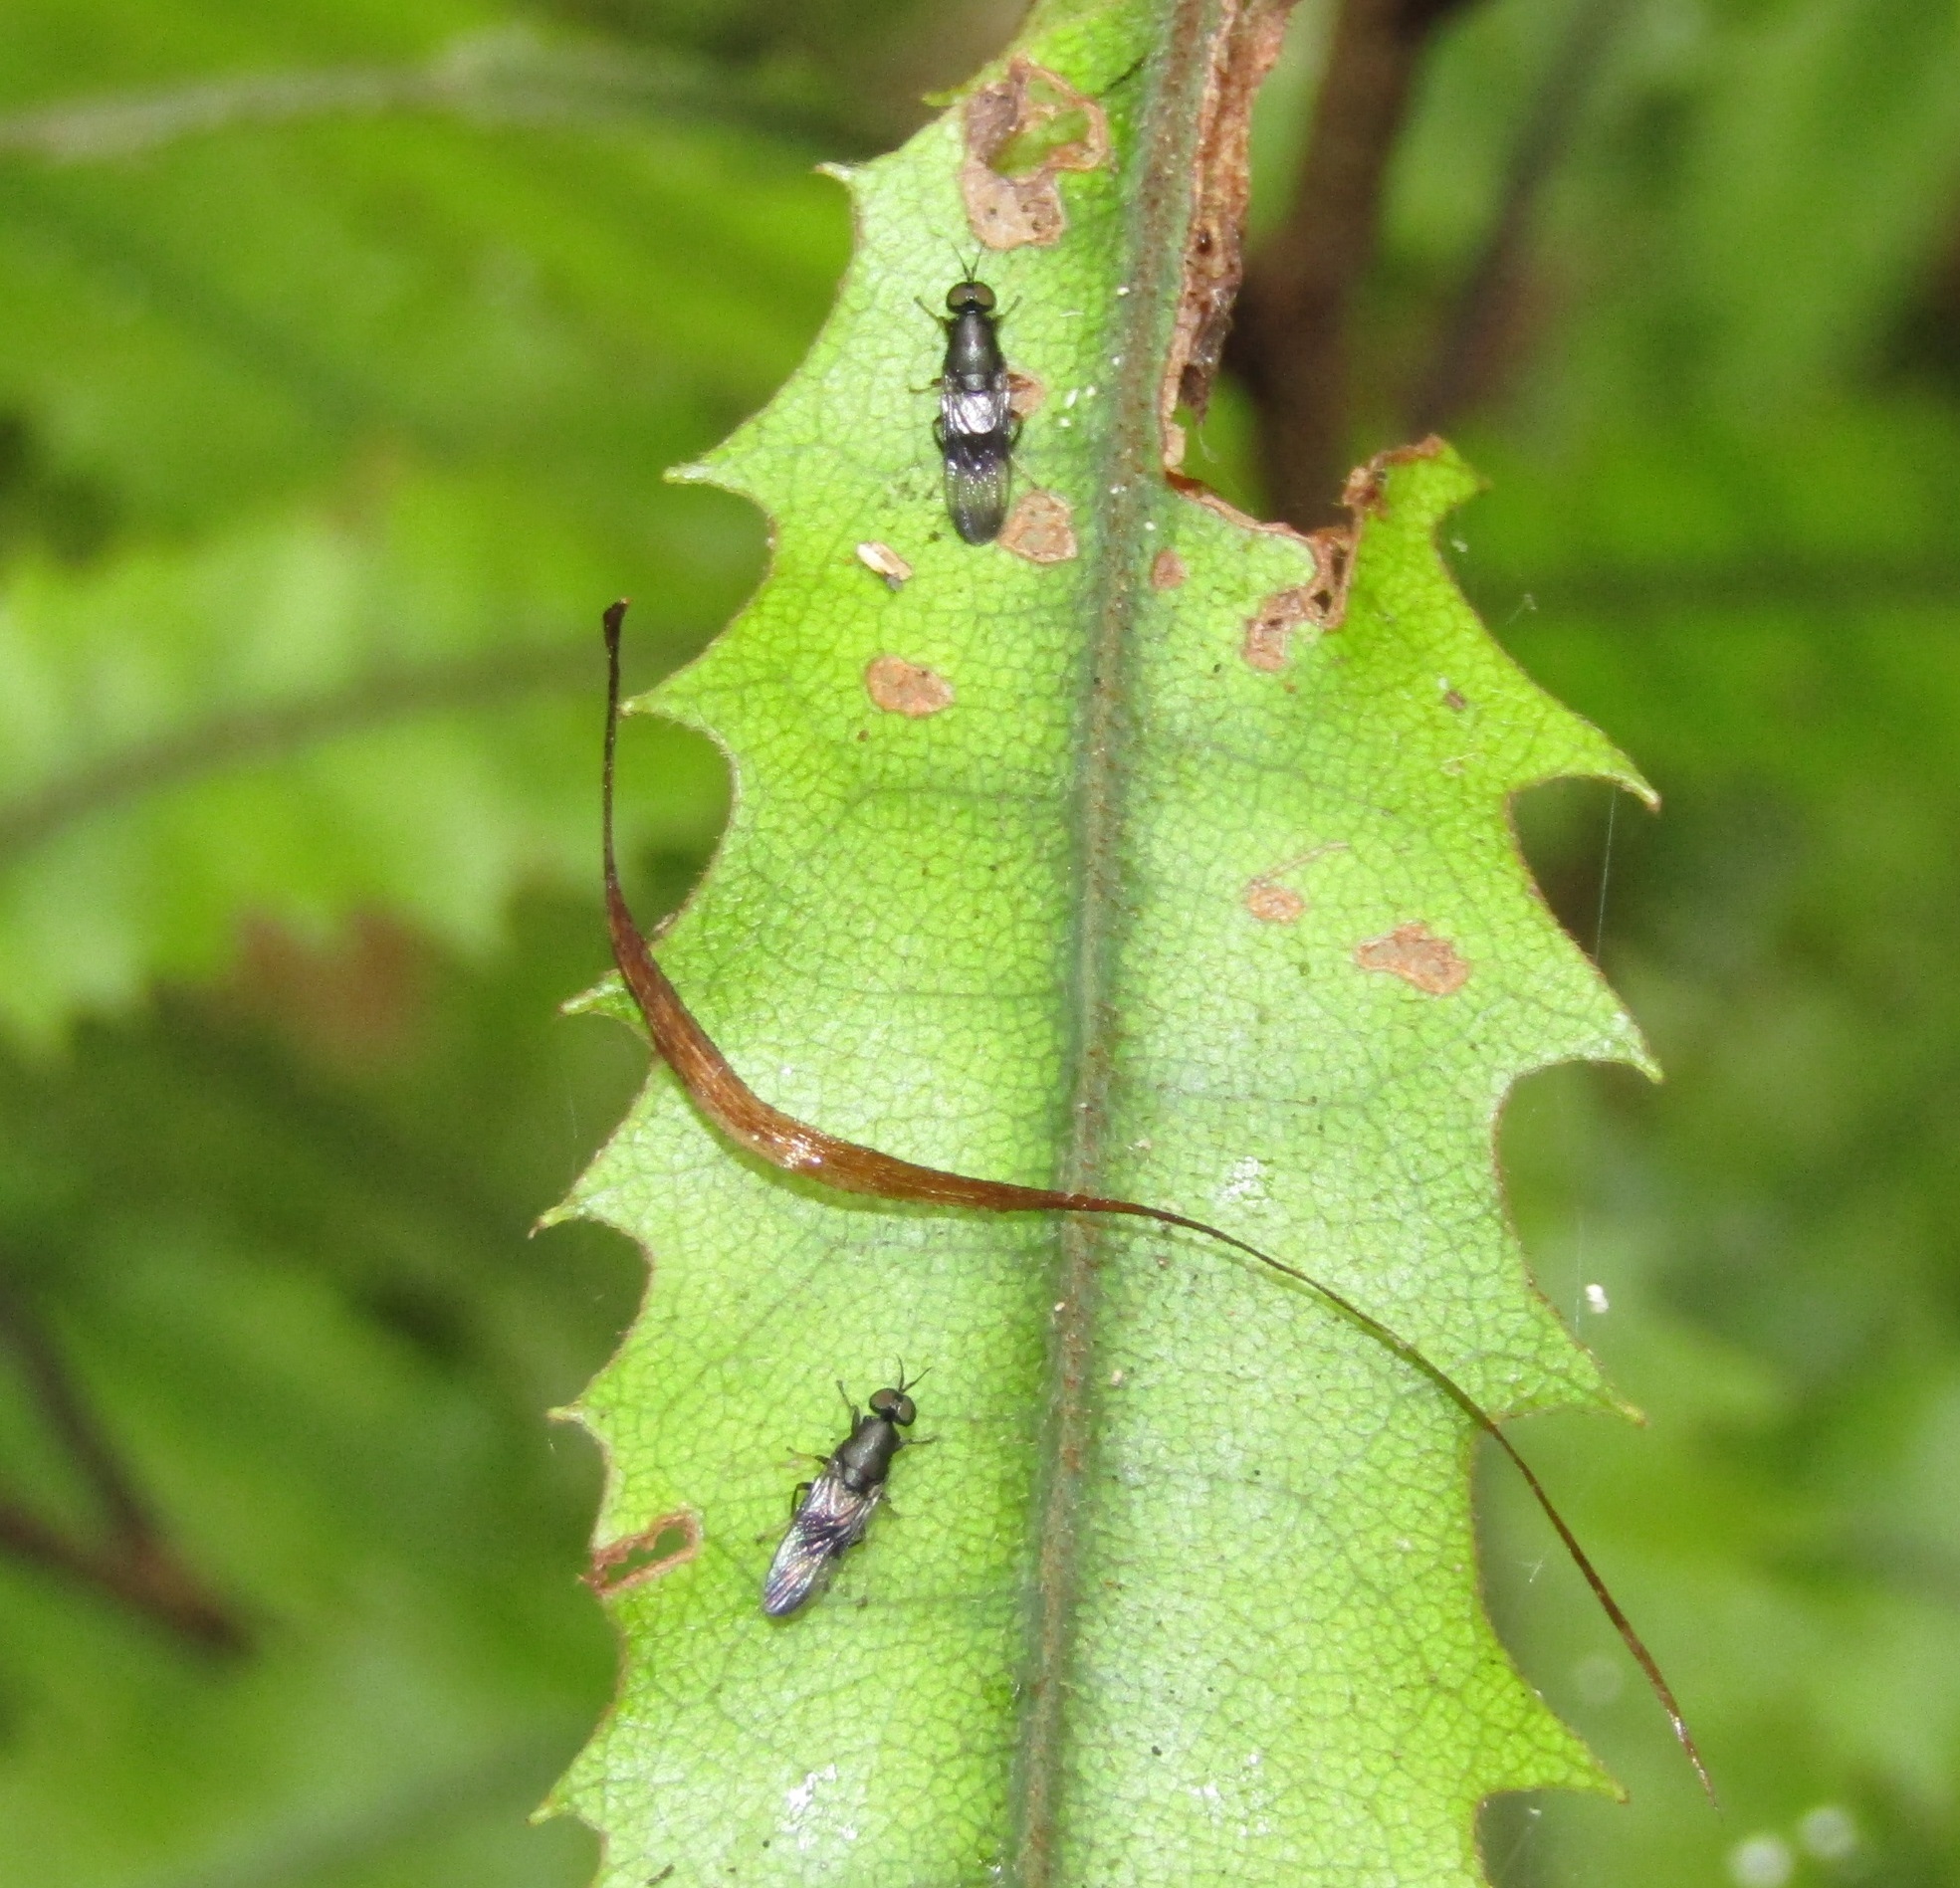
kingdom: Animalia
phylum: Arthropoda
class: Insecta
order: Diptera
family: Stratiomyidae
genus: Dysbiota
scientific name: Dysbiota peregrina
